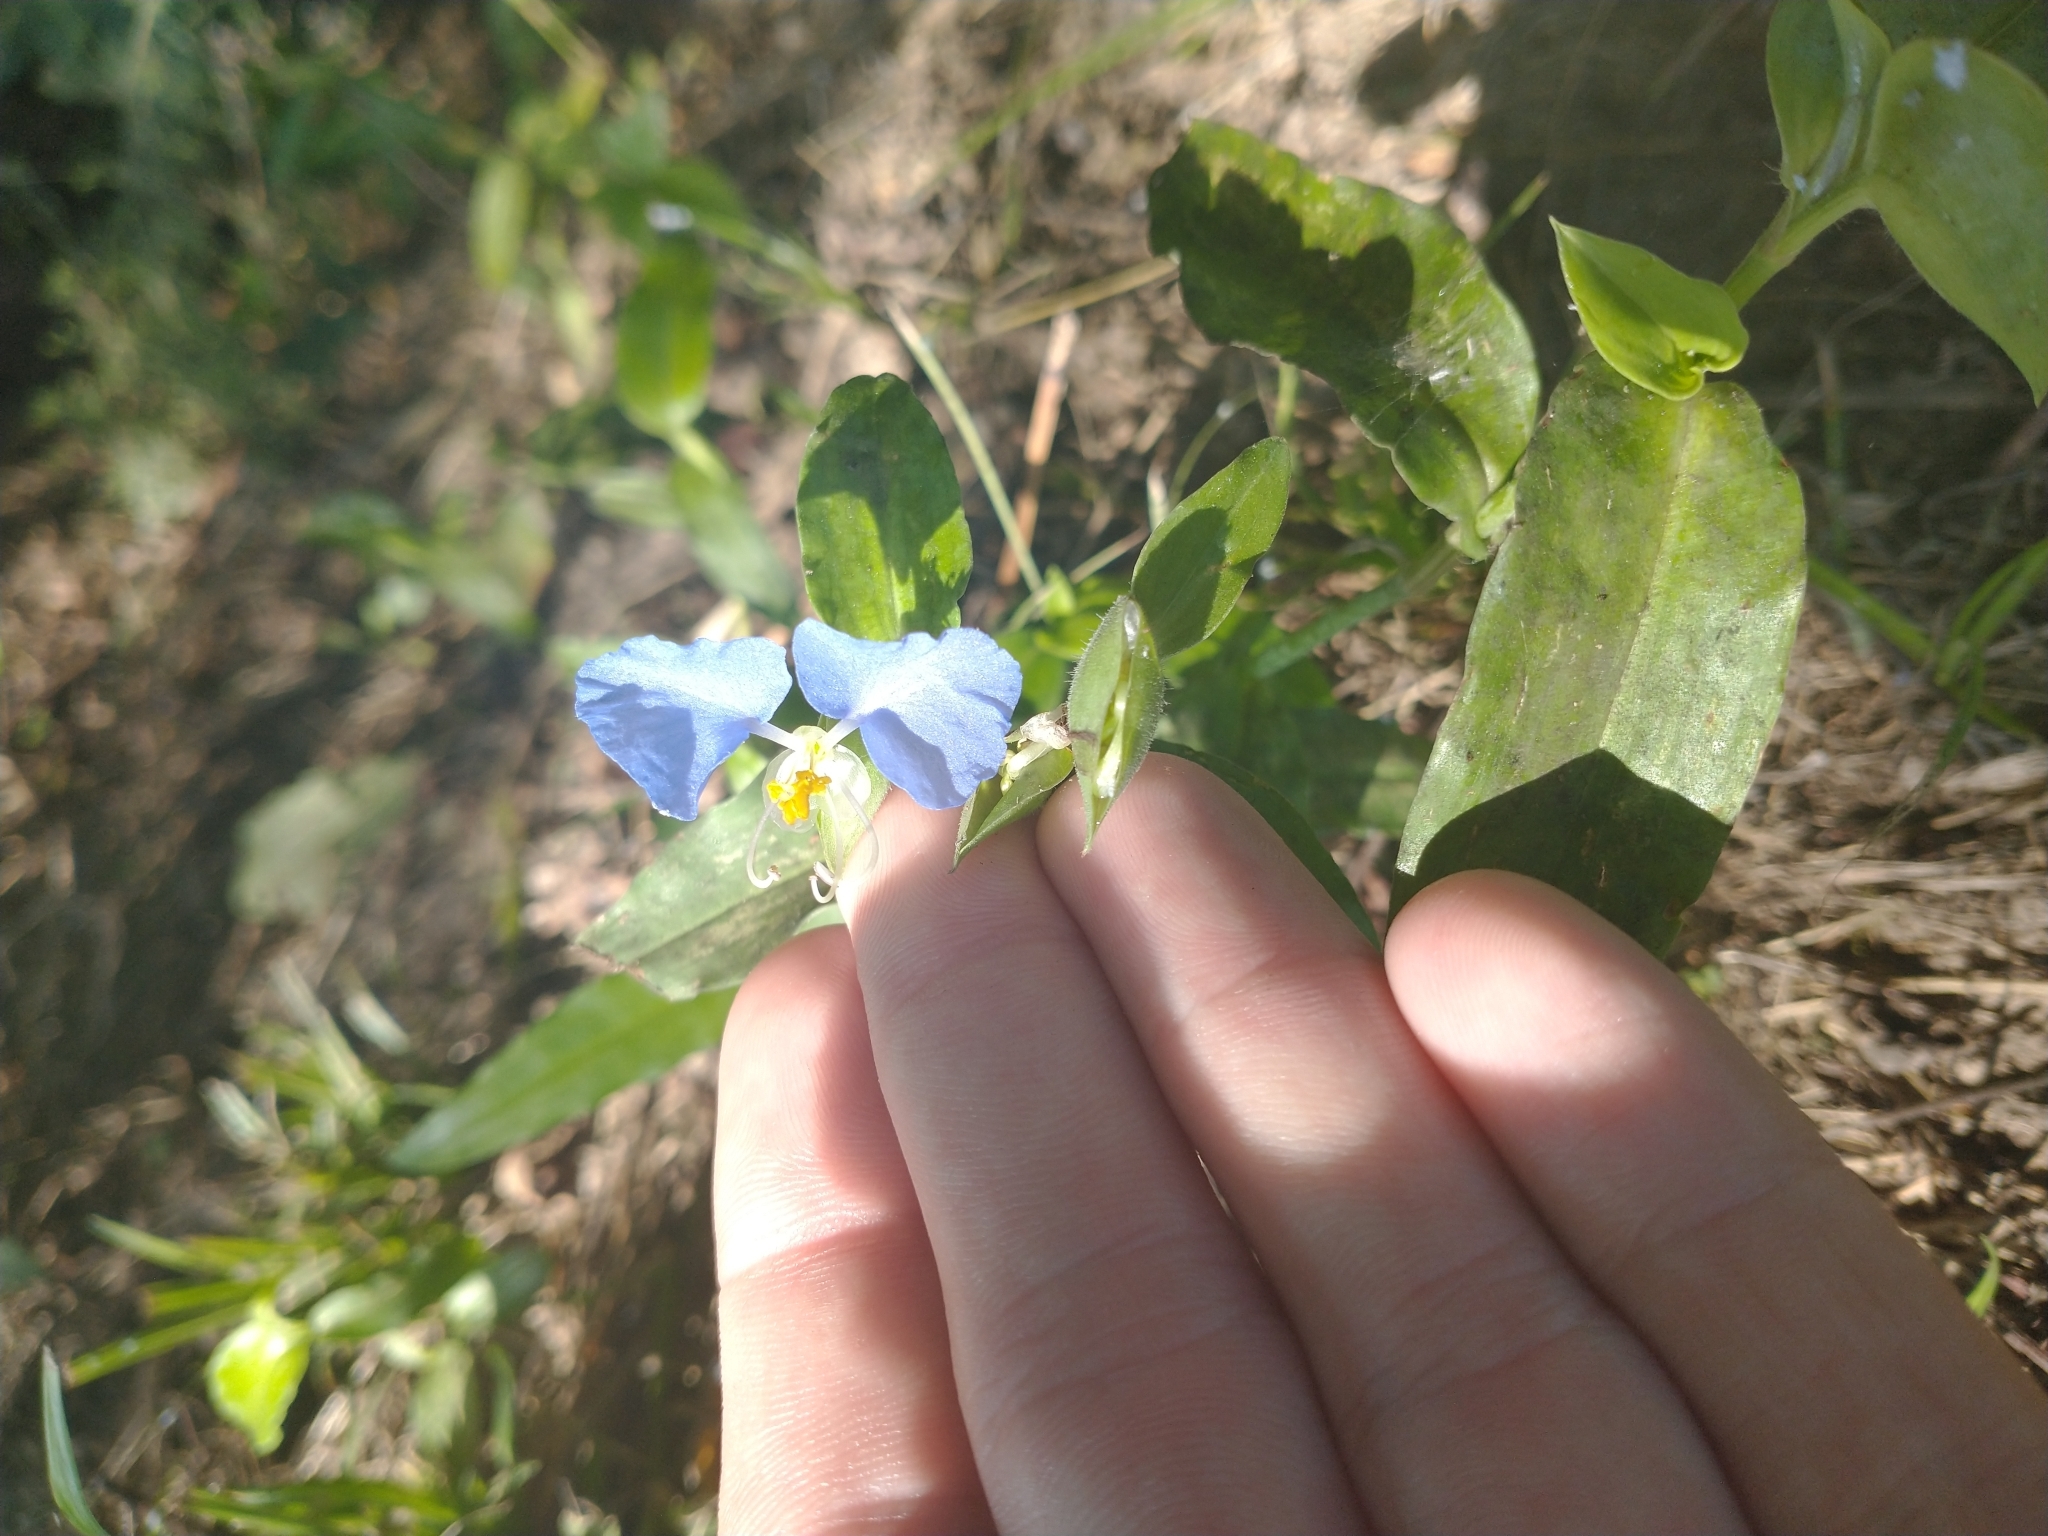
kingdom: Plantae
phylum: Tracheophyta
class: Liliopsida
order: Commelinales
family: Commelinaceae
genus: Commelina
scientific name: Commelina erecta
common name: Blousel blommetjie
